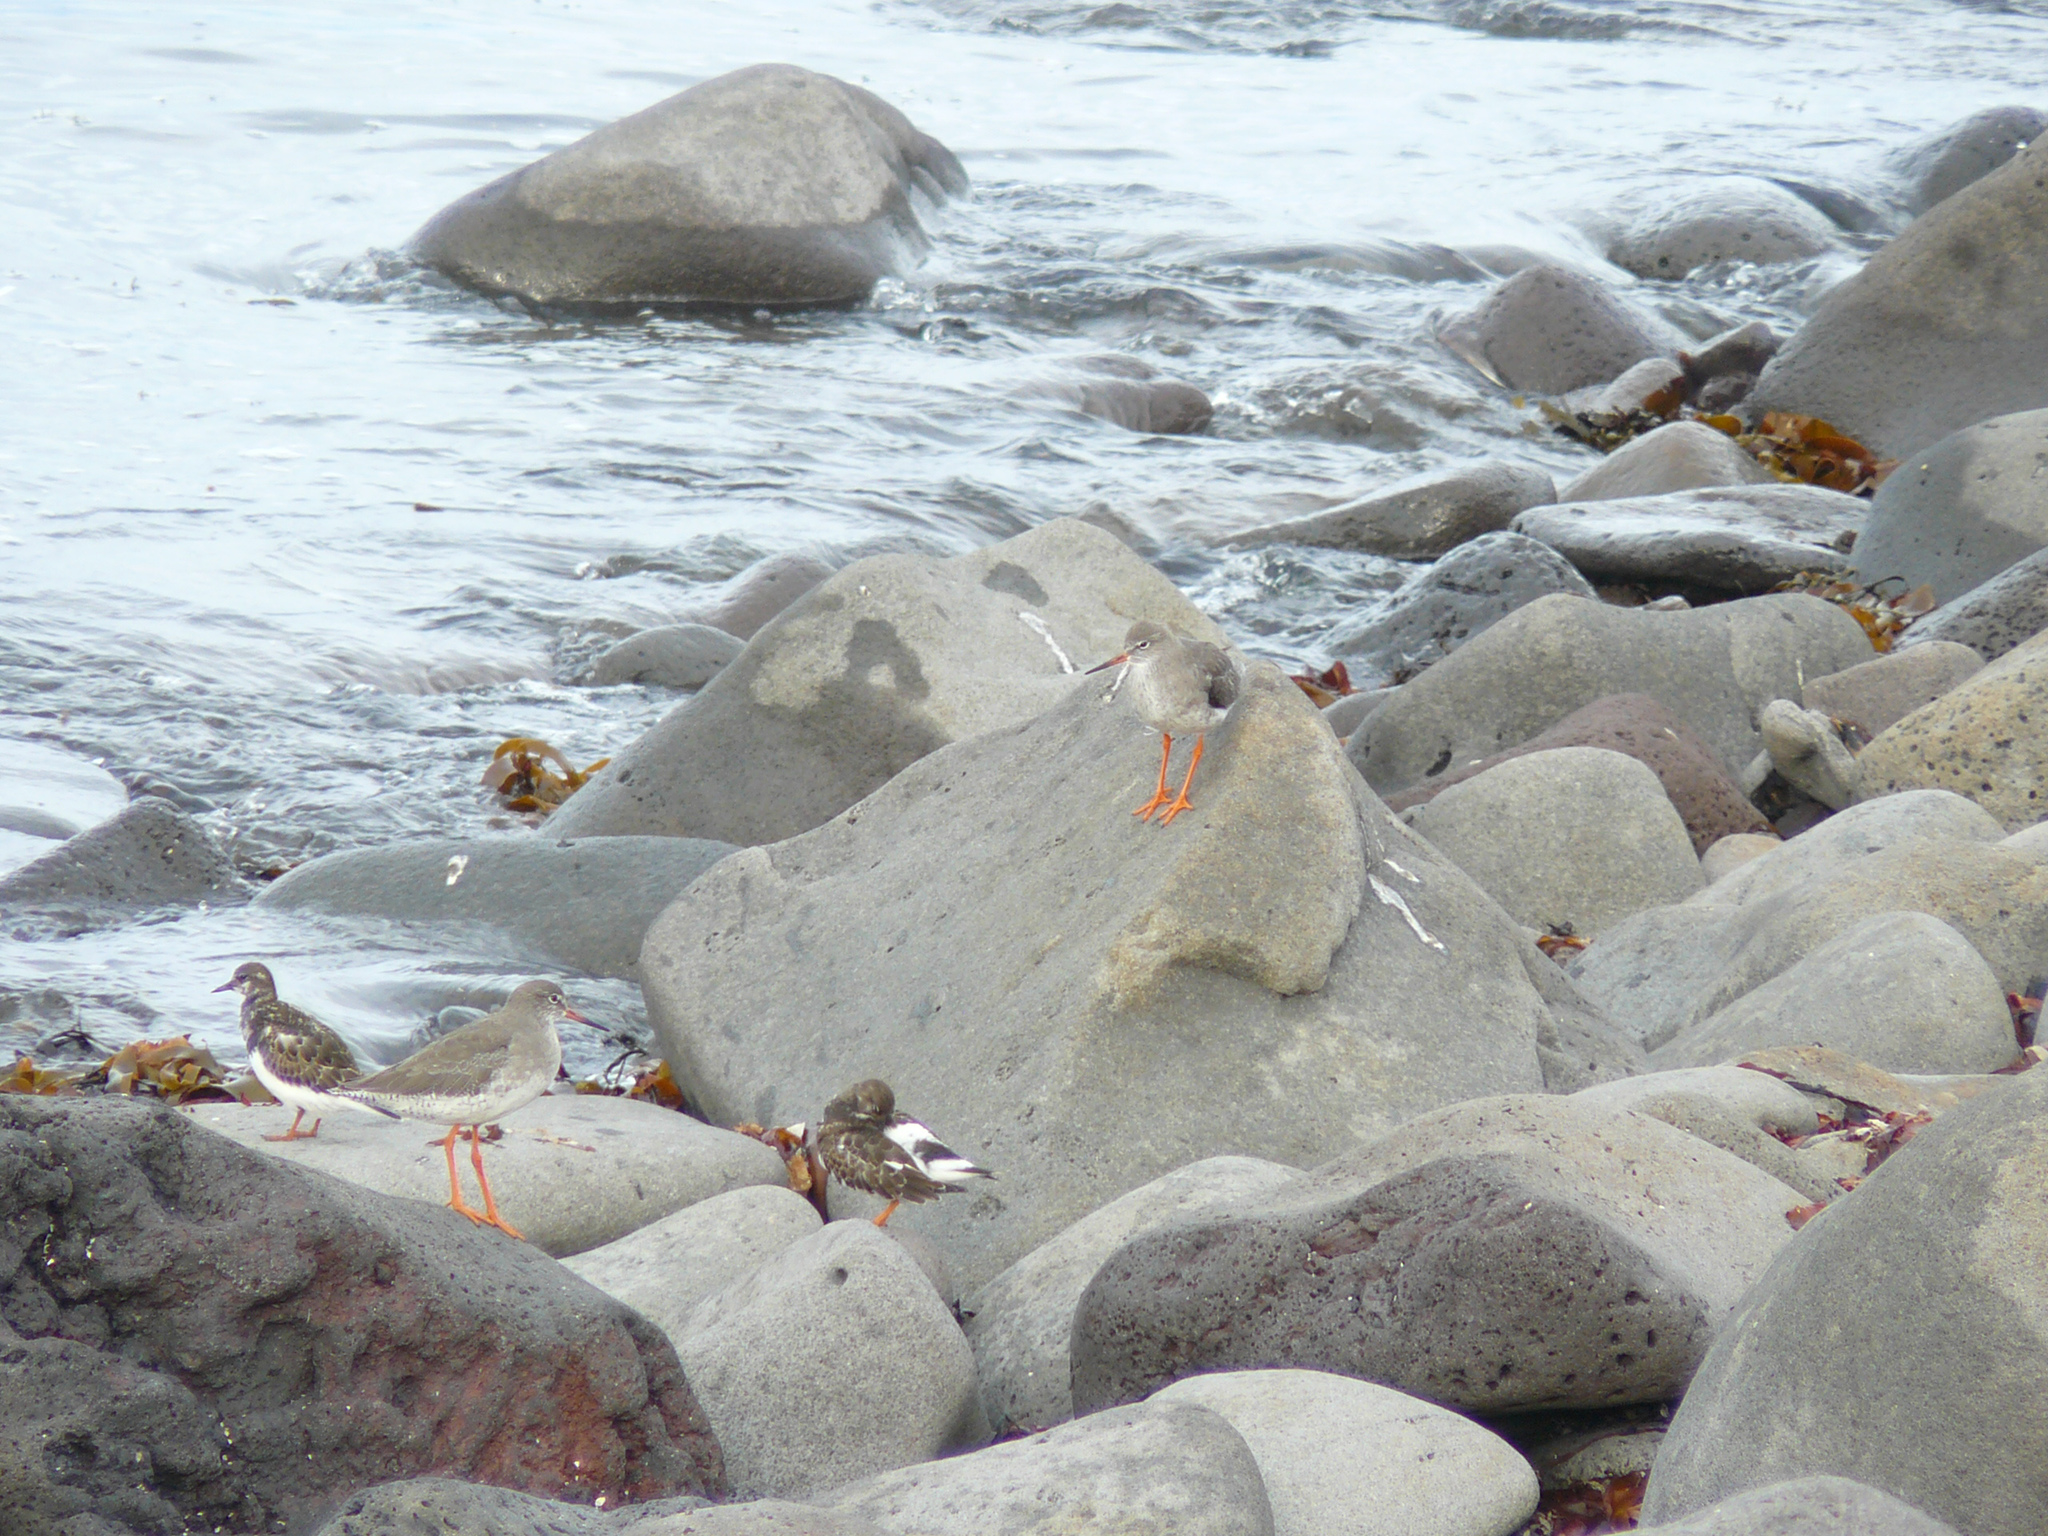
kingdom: Animalia
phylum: Chordata
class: Aves
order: Charadriiformes
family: Scolopacidae
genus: Tringa
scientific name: Tringa totanus
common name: Common redshank
